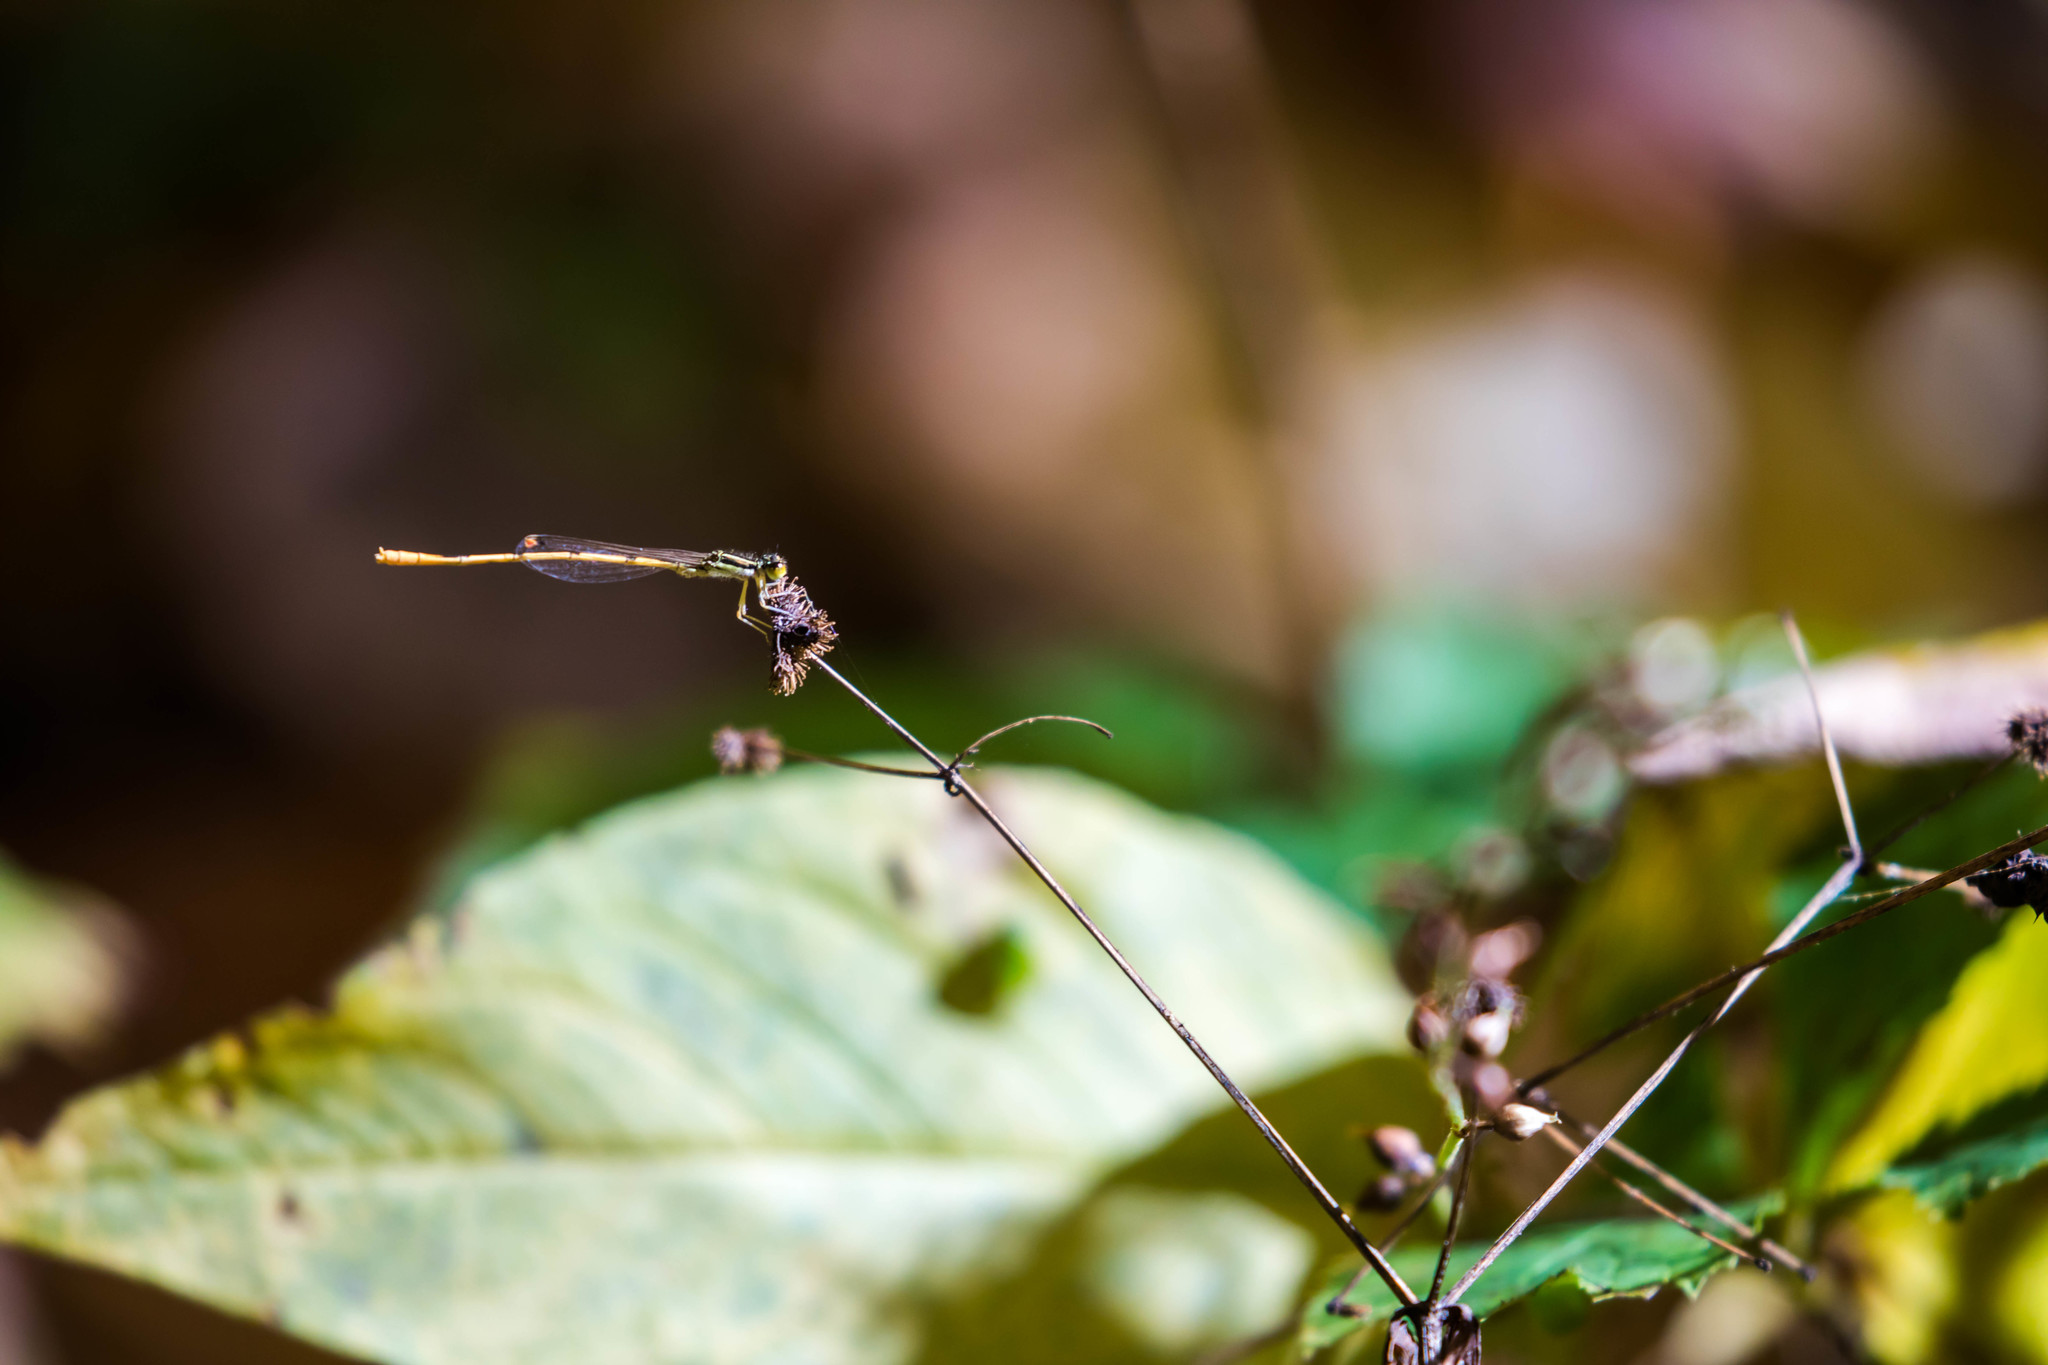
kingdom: Animalia
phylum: Arthropoda
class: Insecta
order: Odonata
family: Coenagrionidae
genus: Ischnura
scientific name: Ischnura hastata
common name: Citrine forktail
